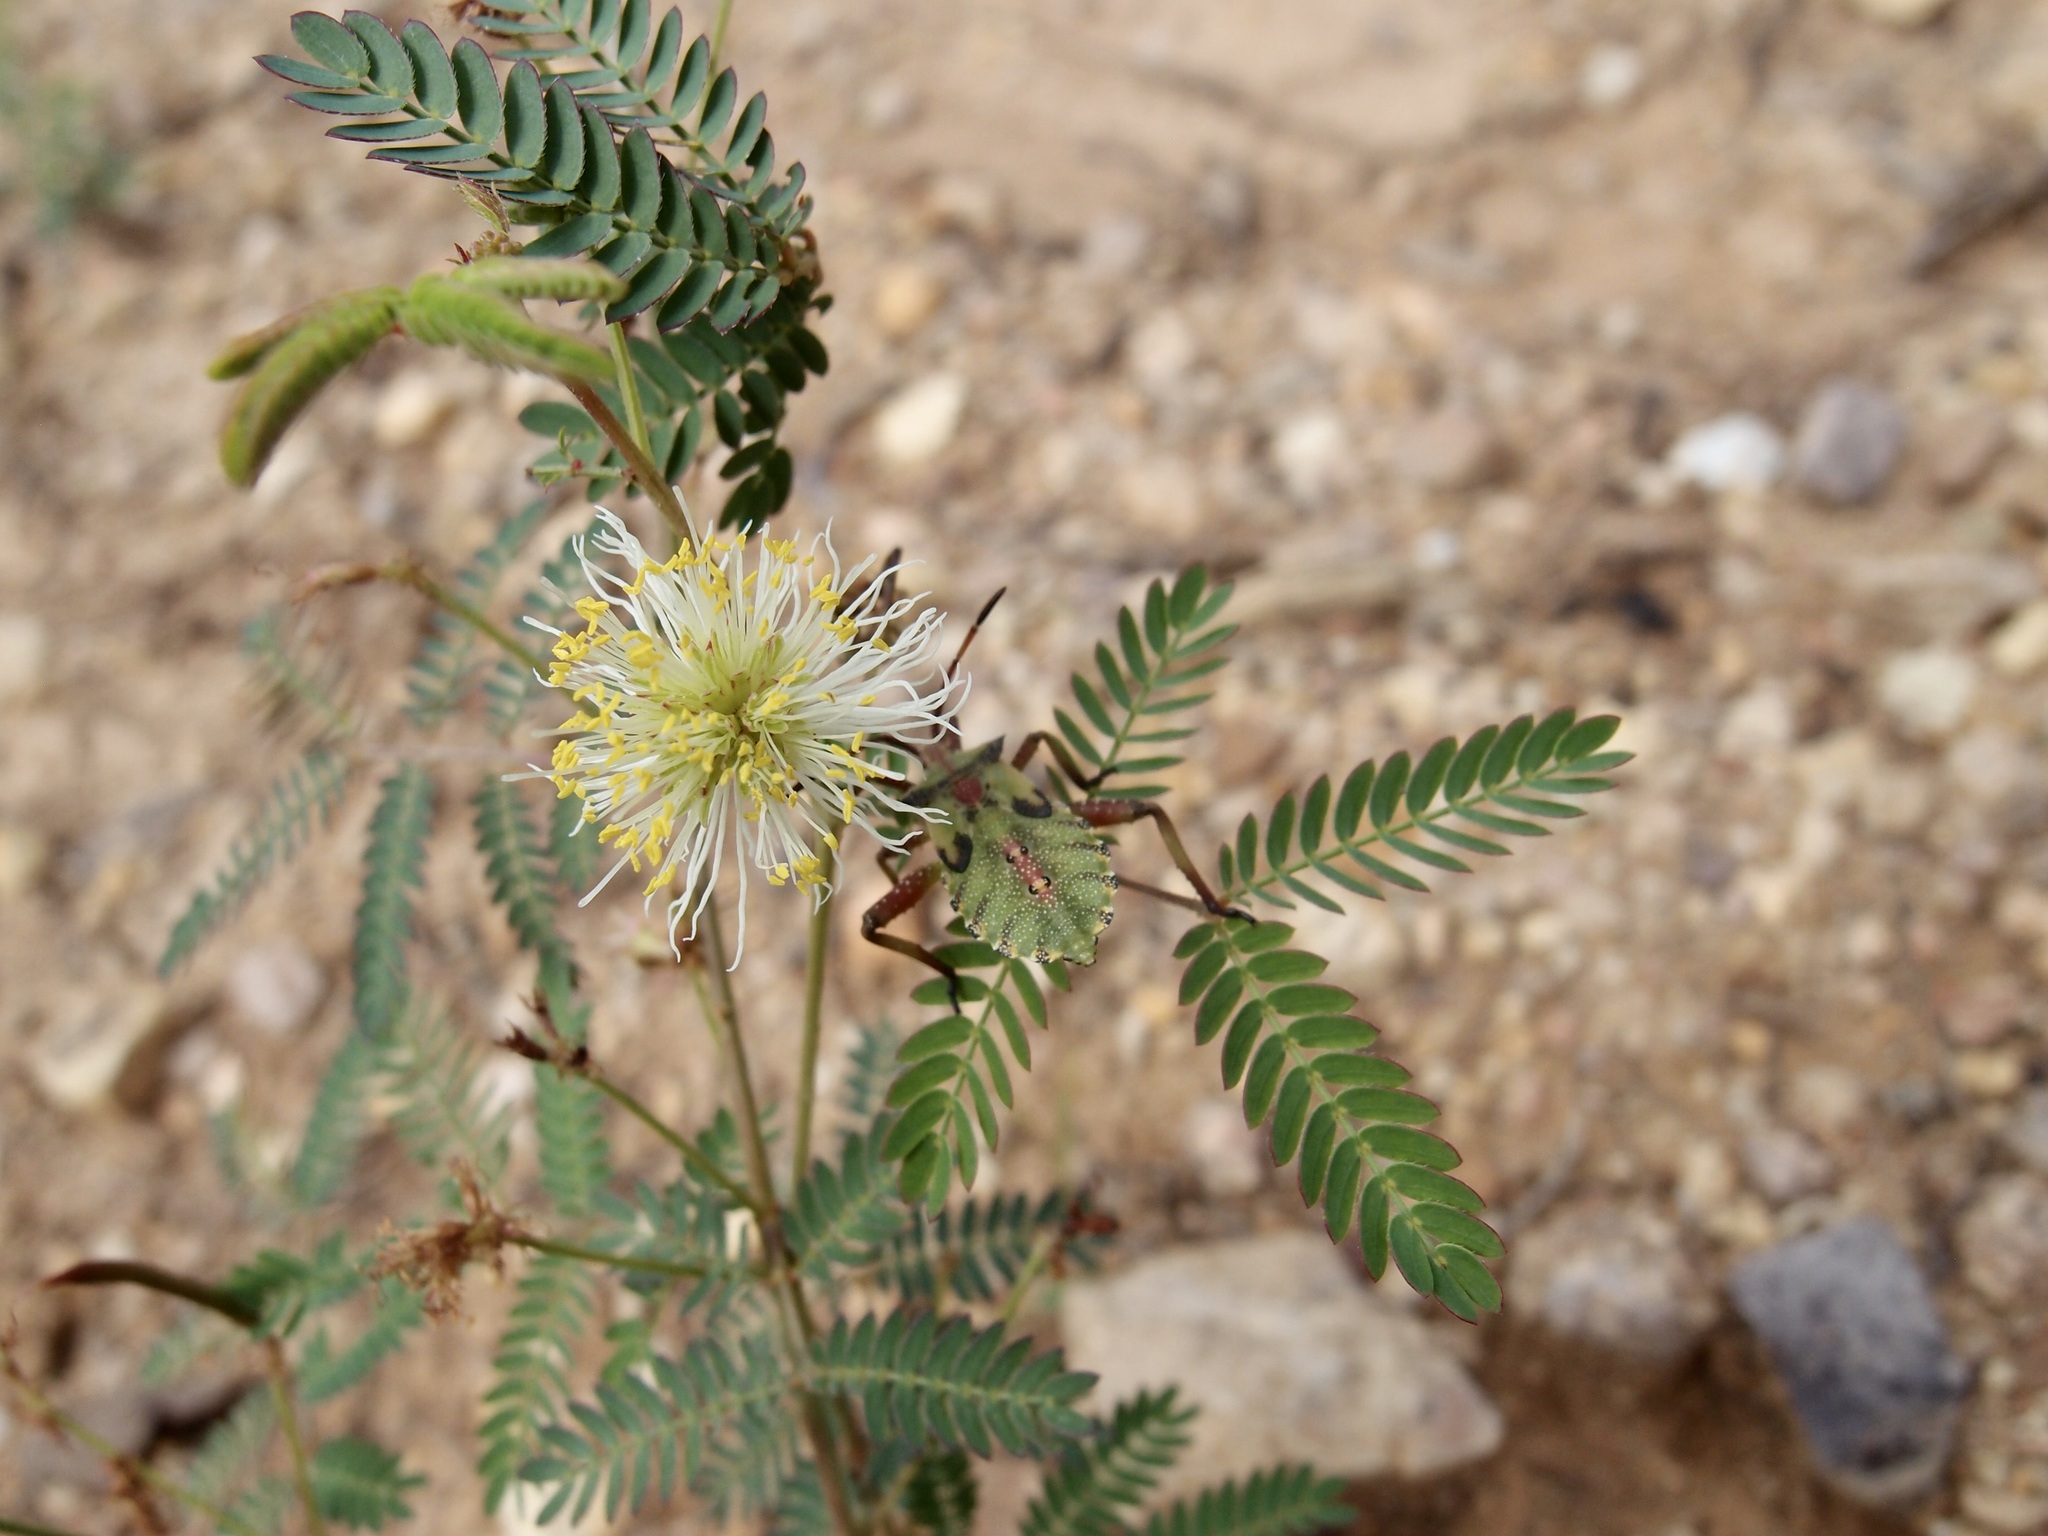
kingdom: Plantae
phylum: Tracheophyta
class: Magnoliopsida
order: Fabales
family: Fabaceae
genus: Desmanthus
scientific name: Desmanthus cooleyi
